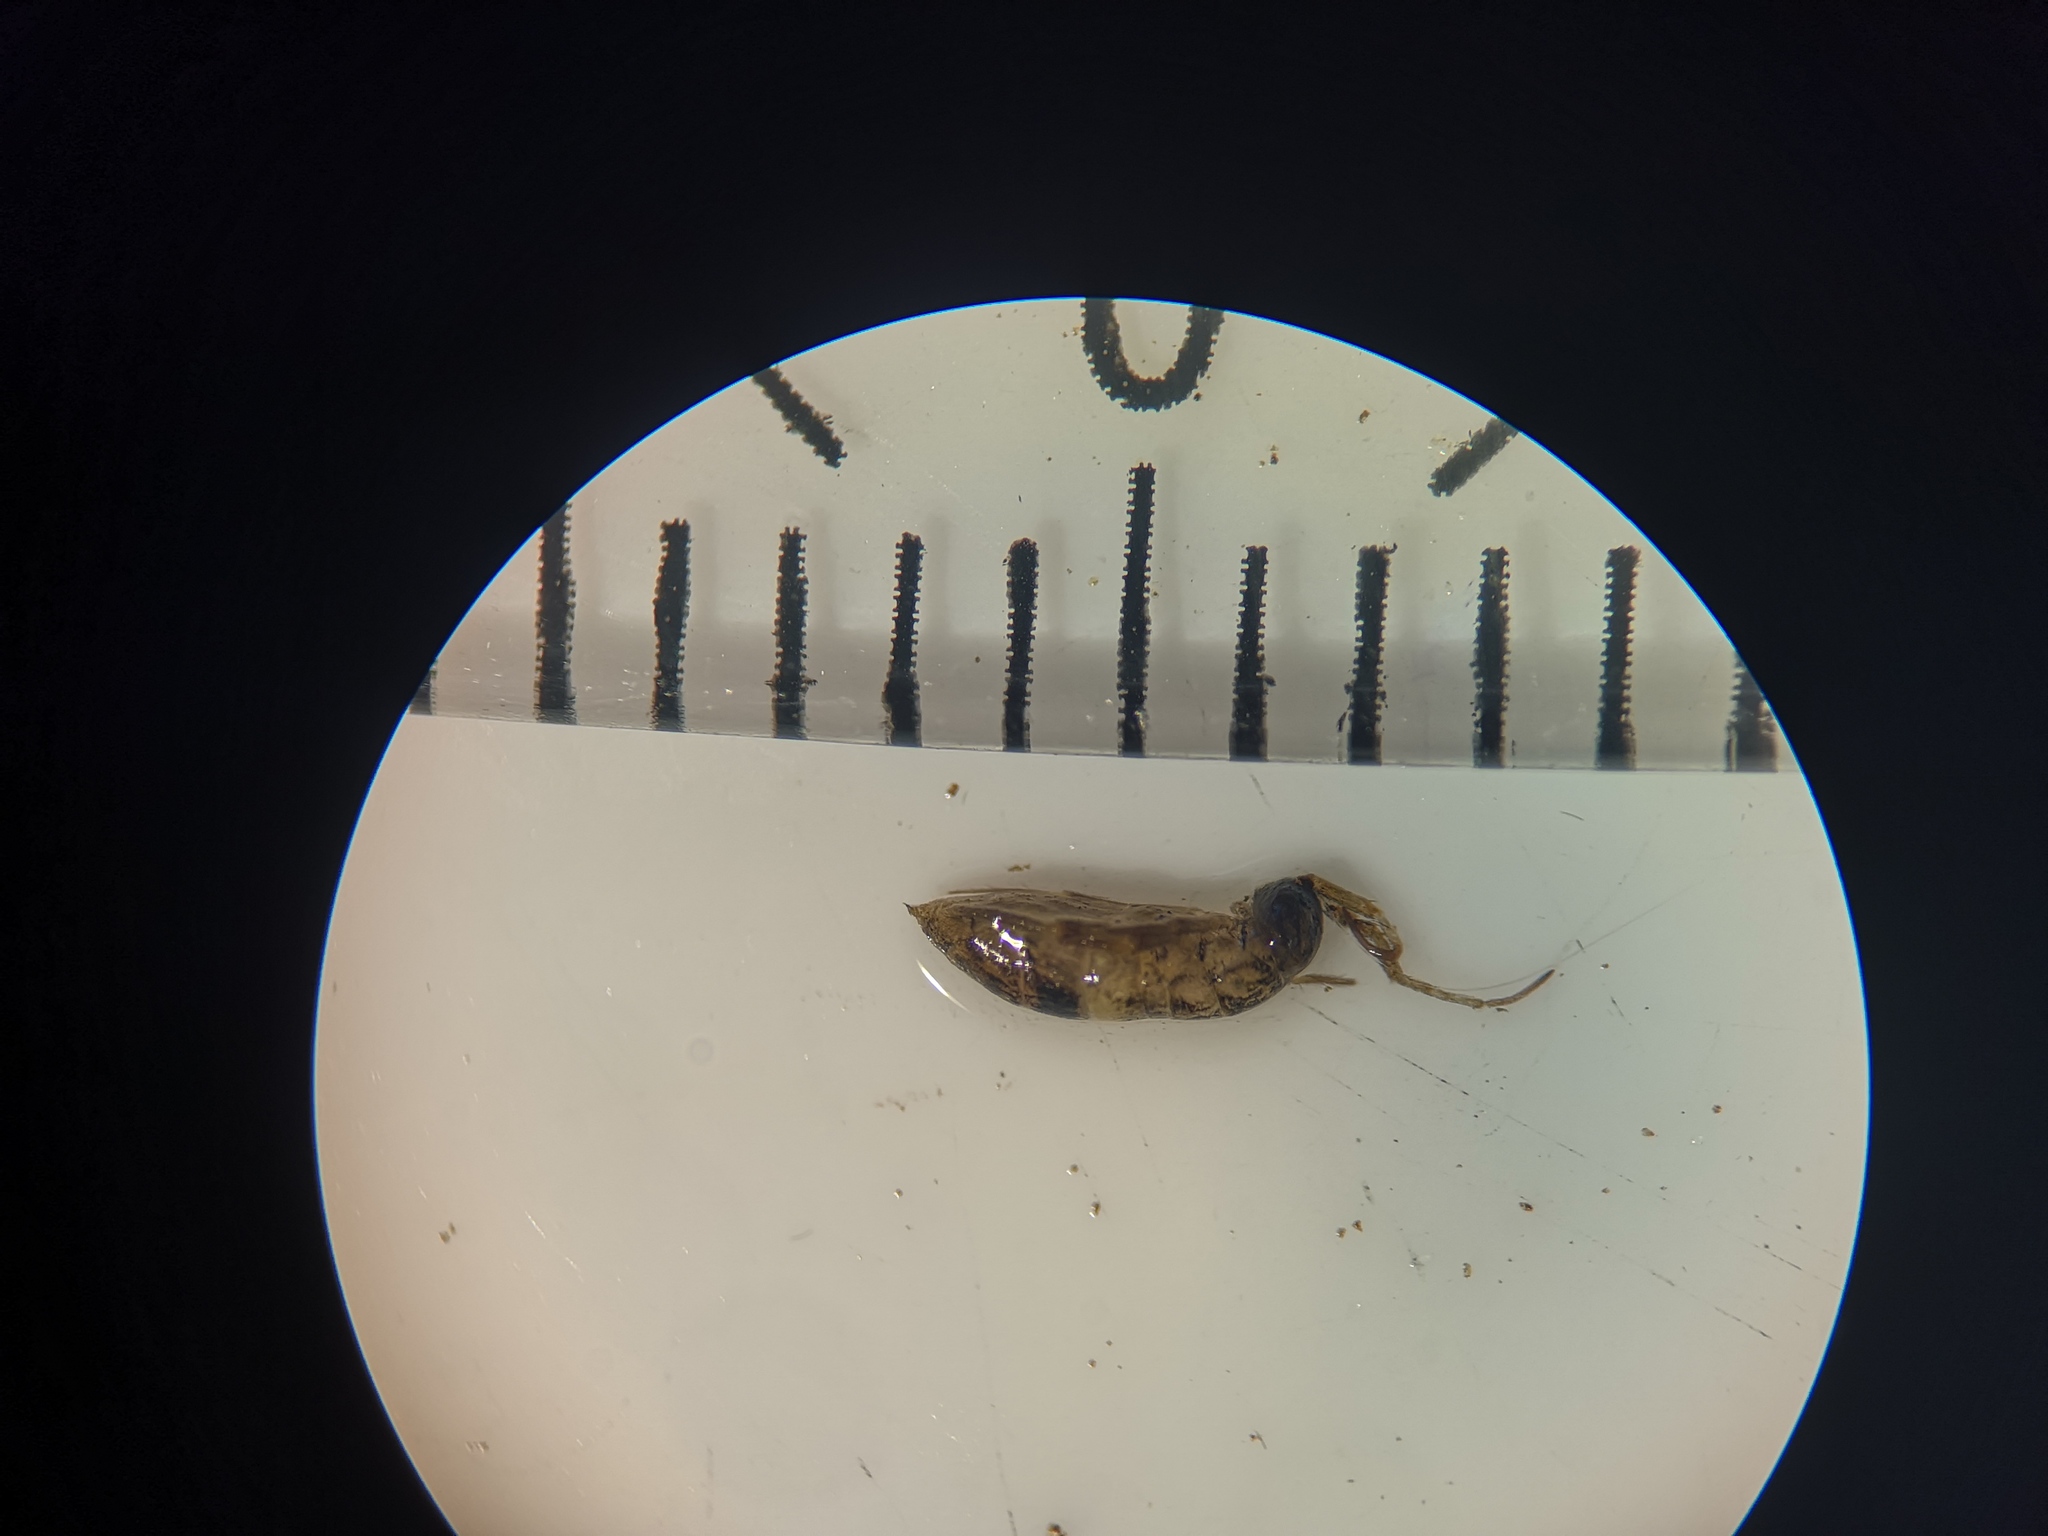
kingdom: Animalia
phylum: Arthropoda
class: Collembola
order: Entomobryomorpha
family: Orchesellidae
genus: Orchesella
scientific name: Orchesella cincta
